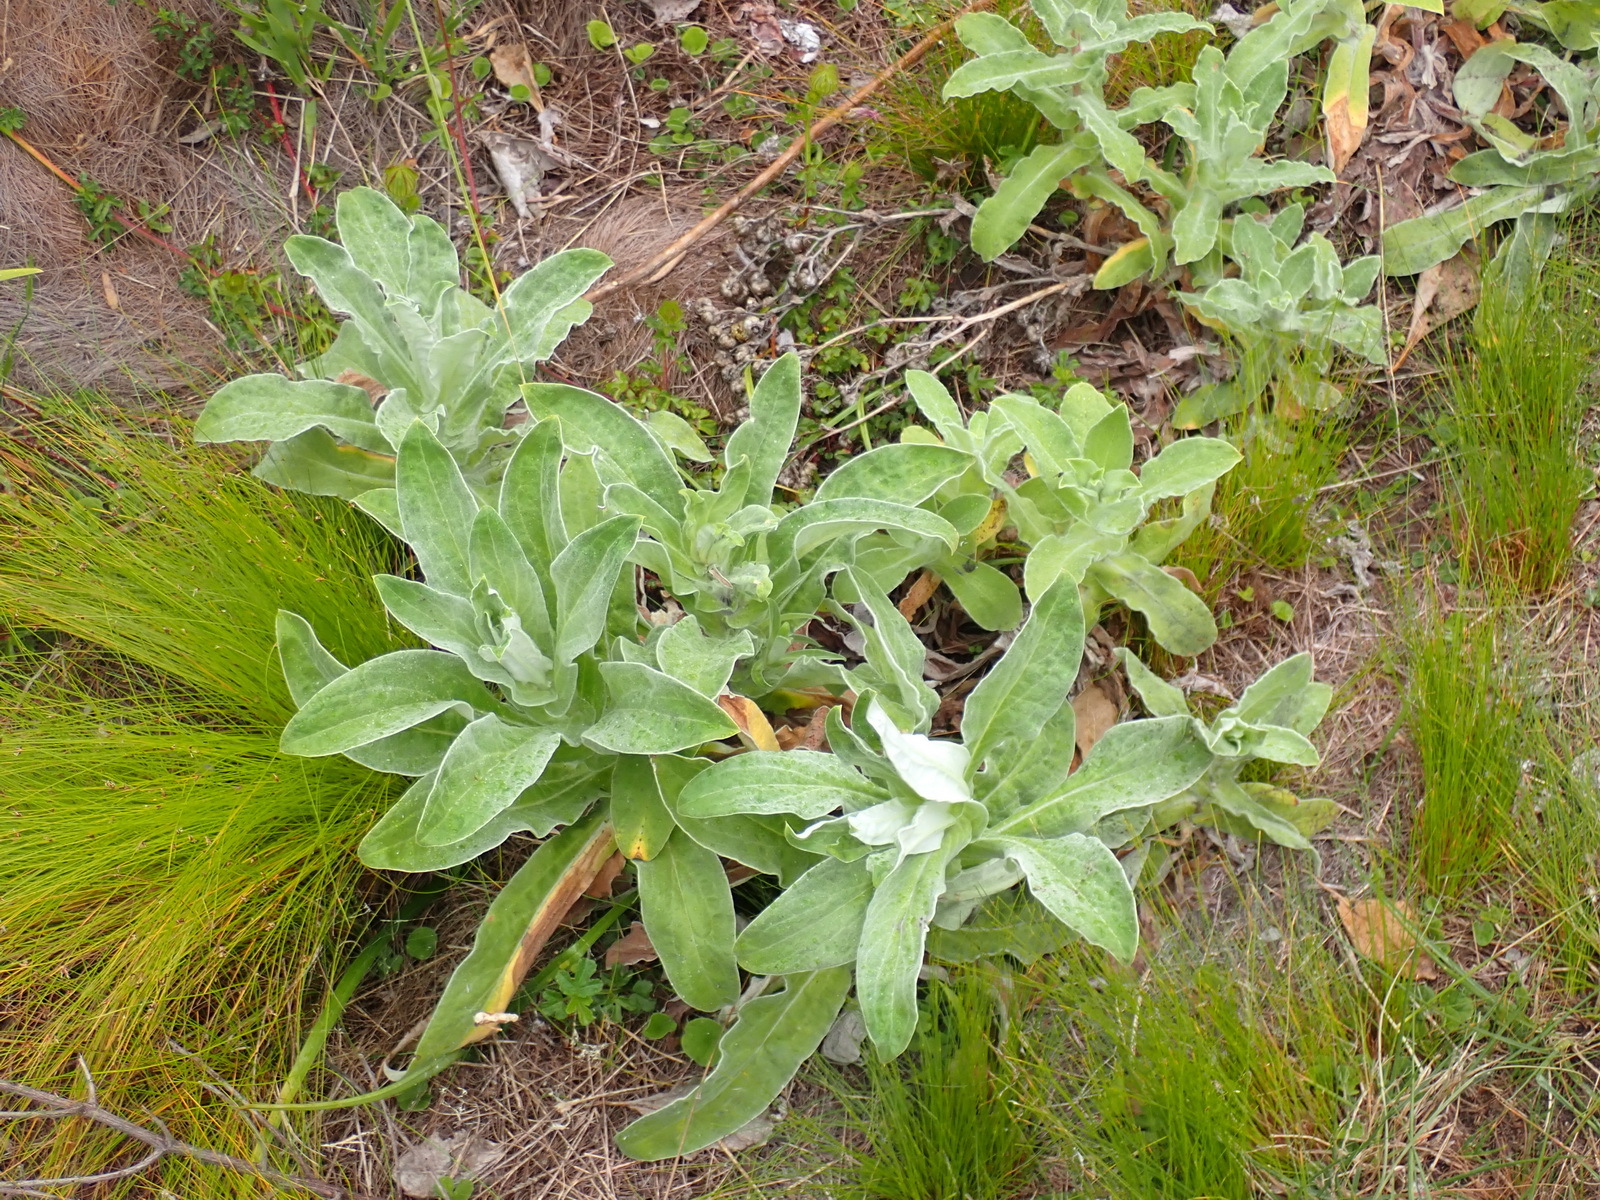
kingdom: Plantae
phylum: Tracheophyta
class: Magnoliopsida
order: Asterales
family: Asteraceae
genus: Helichrysum
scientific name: Helichrysum foetidum
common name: Stinking everlasting
